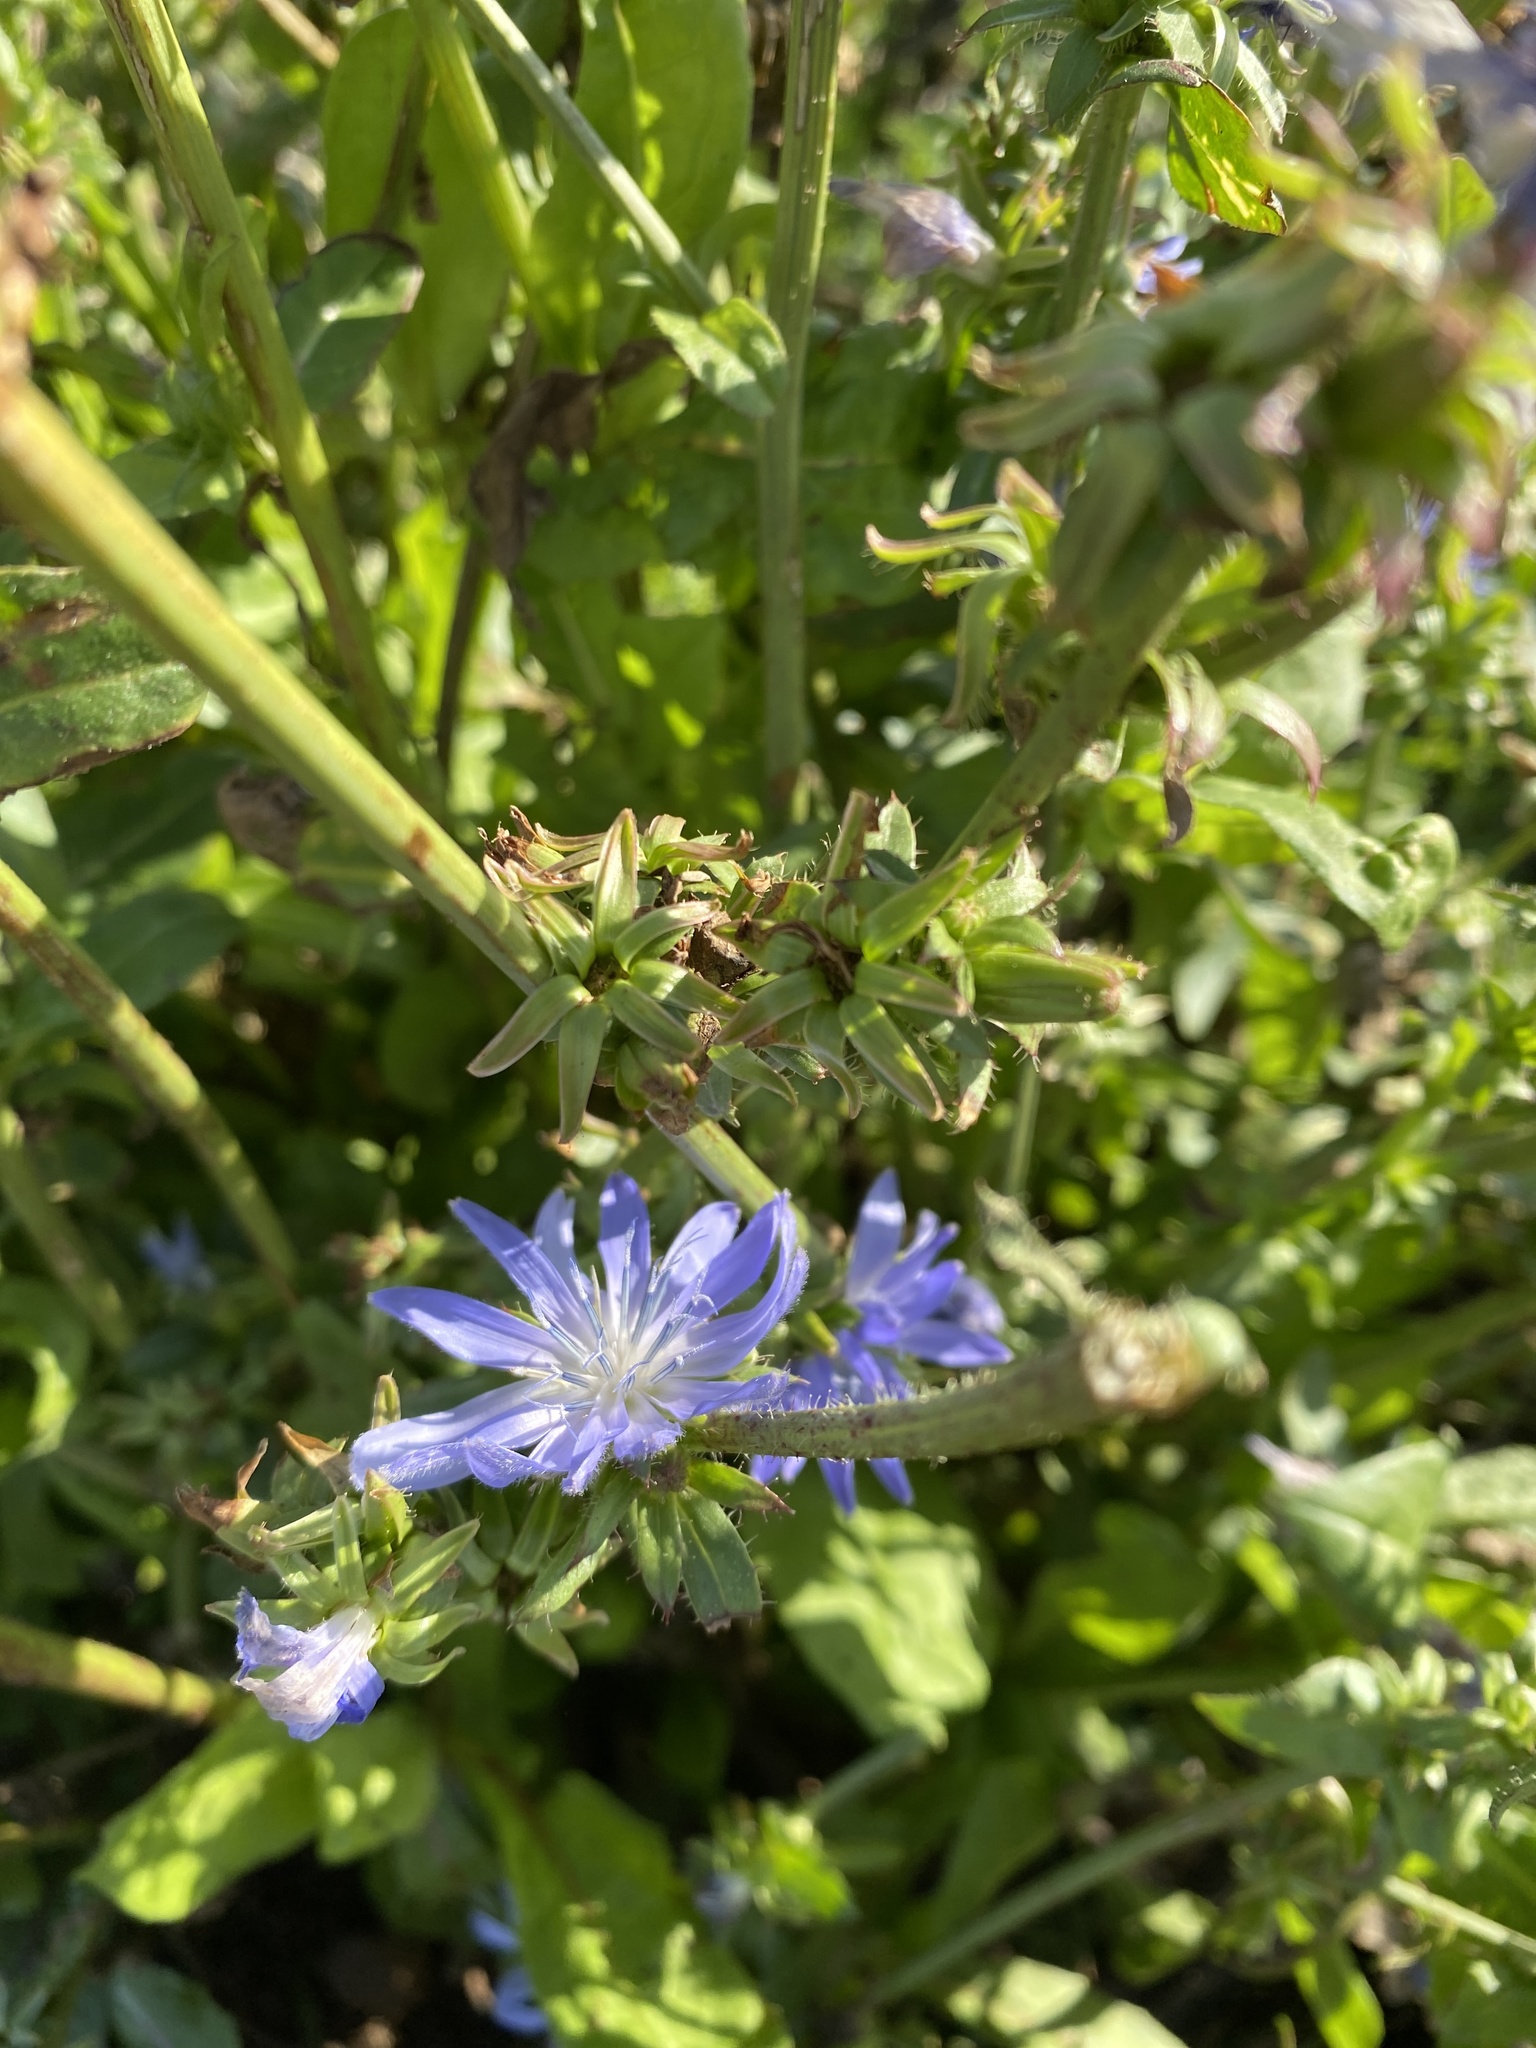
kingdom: Plantae
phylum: Tracheophyta
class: Magnoliopsida
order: Asterales
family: Asteraceae
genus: Cichorium
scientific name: Cichorium intybus
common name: Chicory
